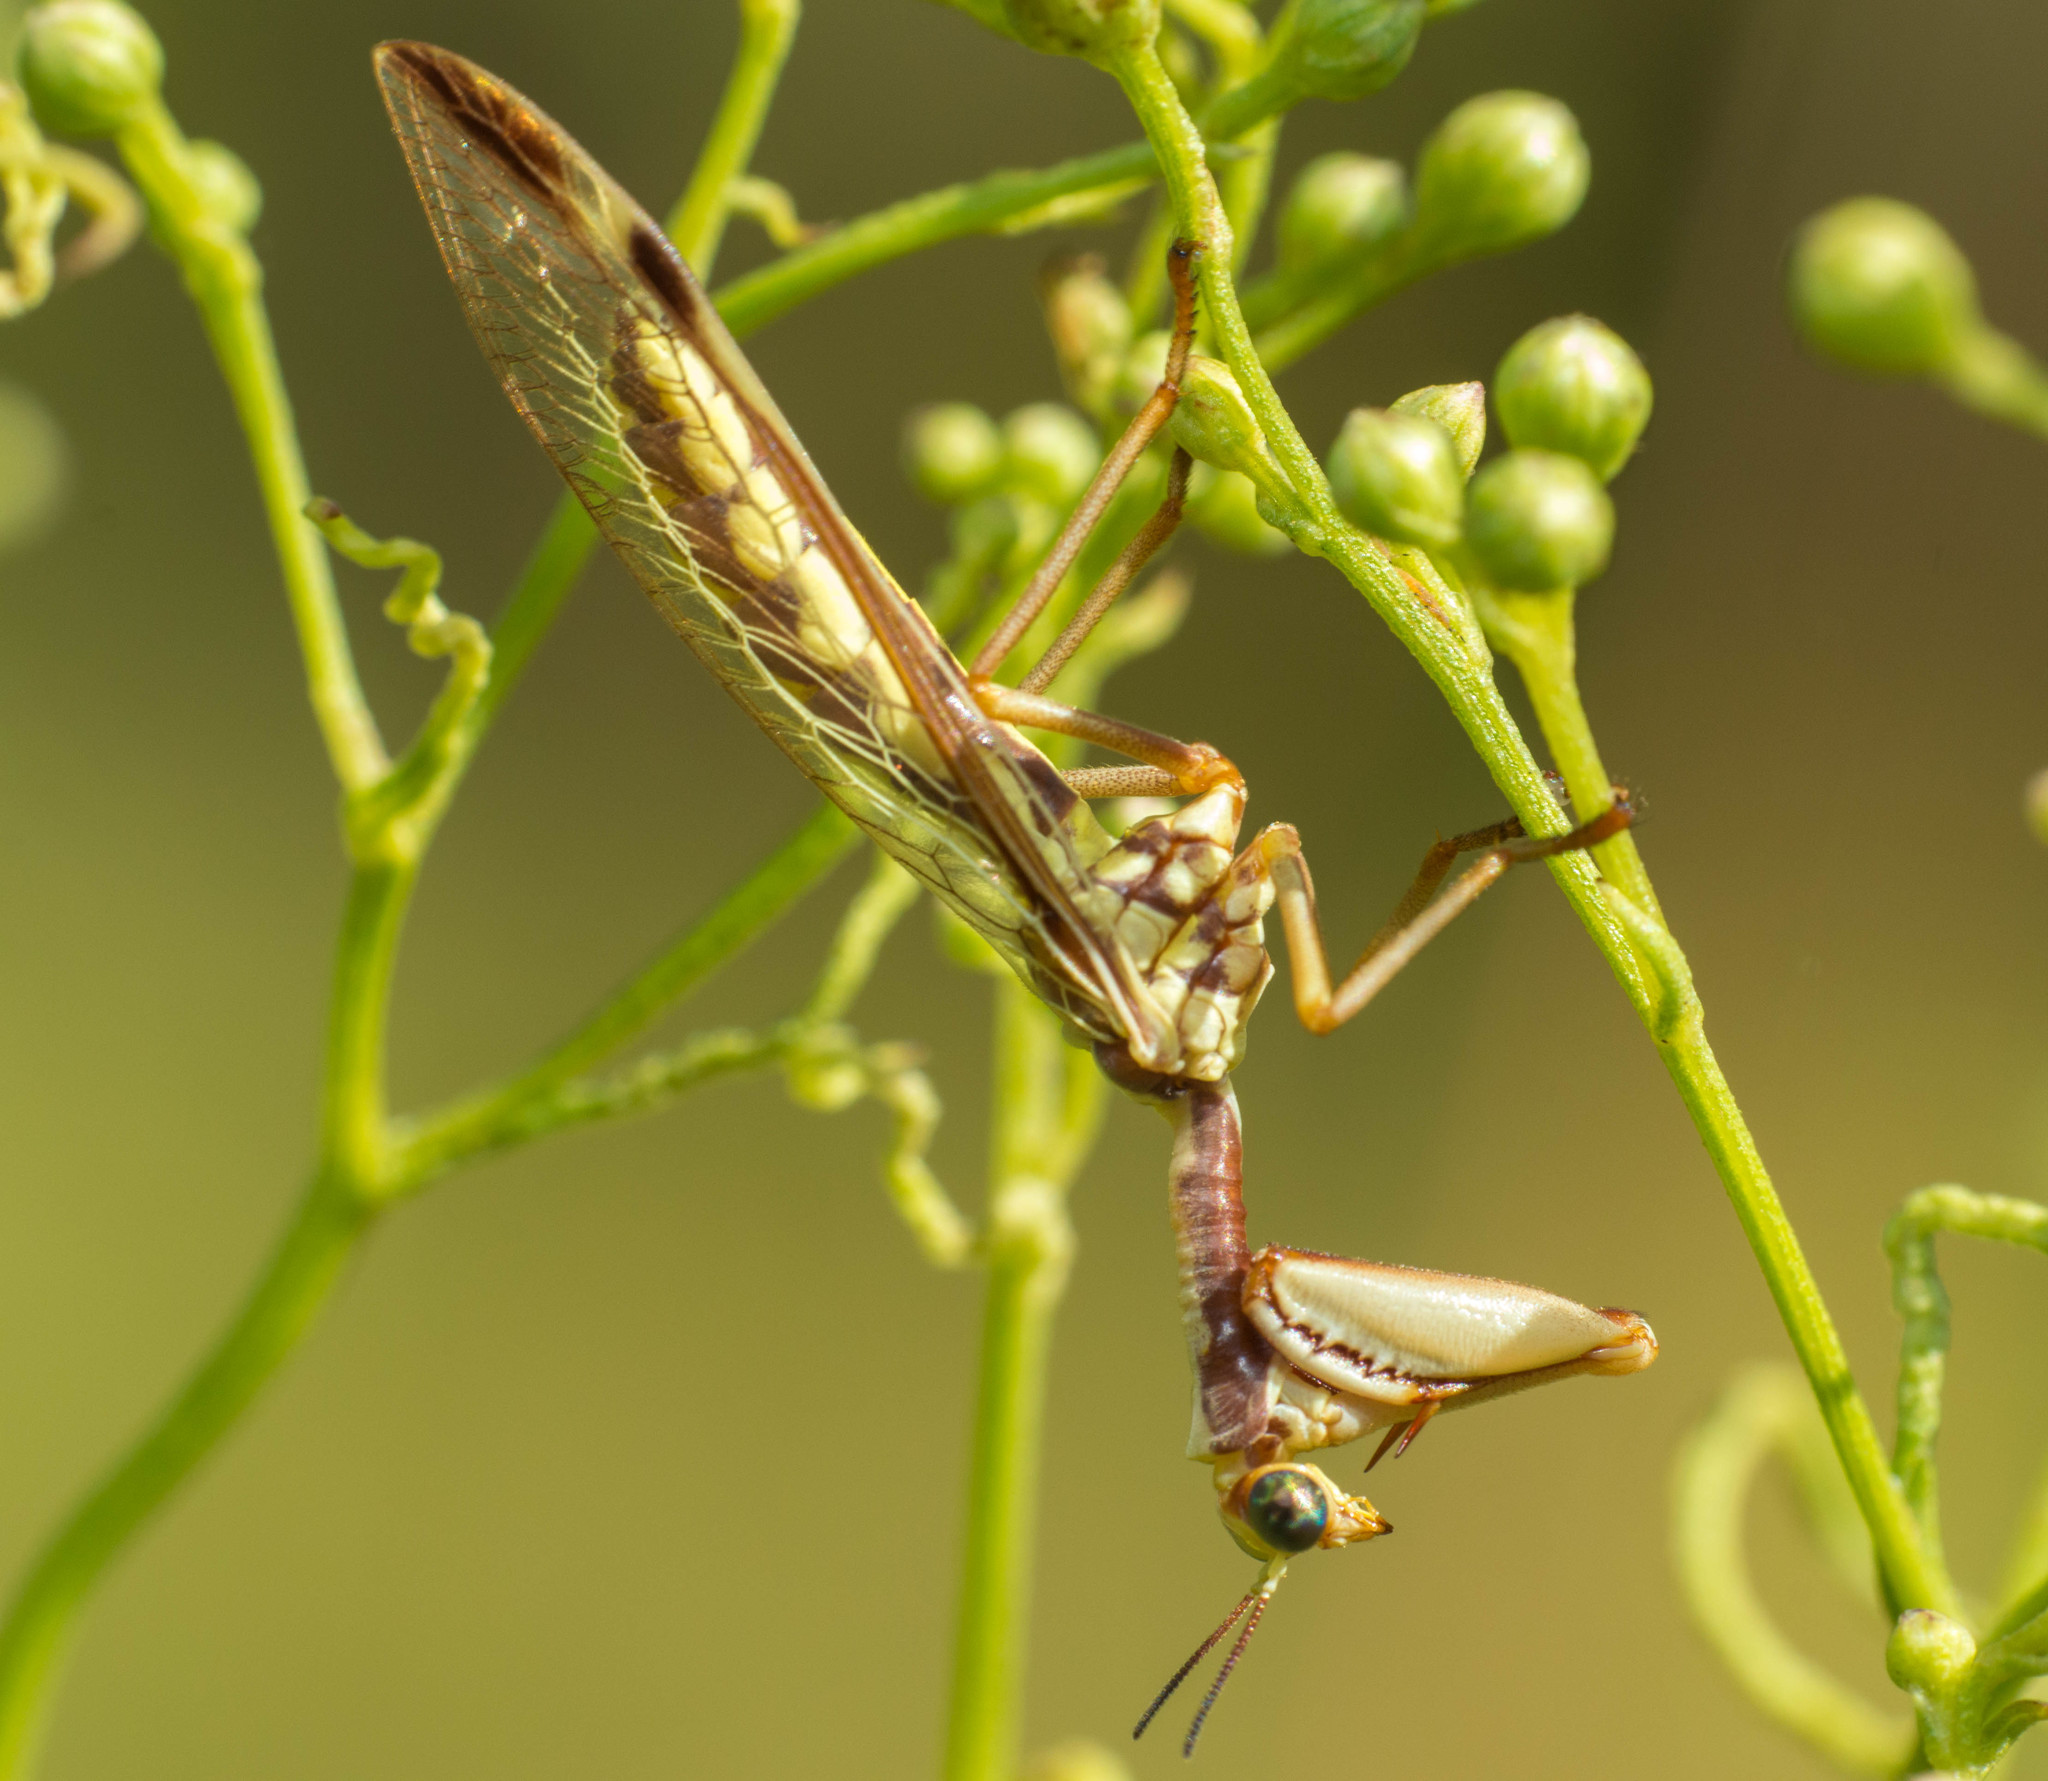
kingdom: Animalia
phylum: Arthropoda
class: Insecta
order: Neuroptera
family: Mantispidae
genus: Paramantispa
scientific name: Paramantispa prolixa
